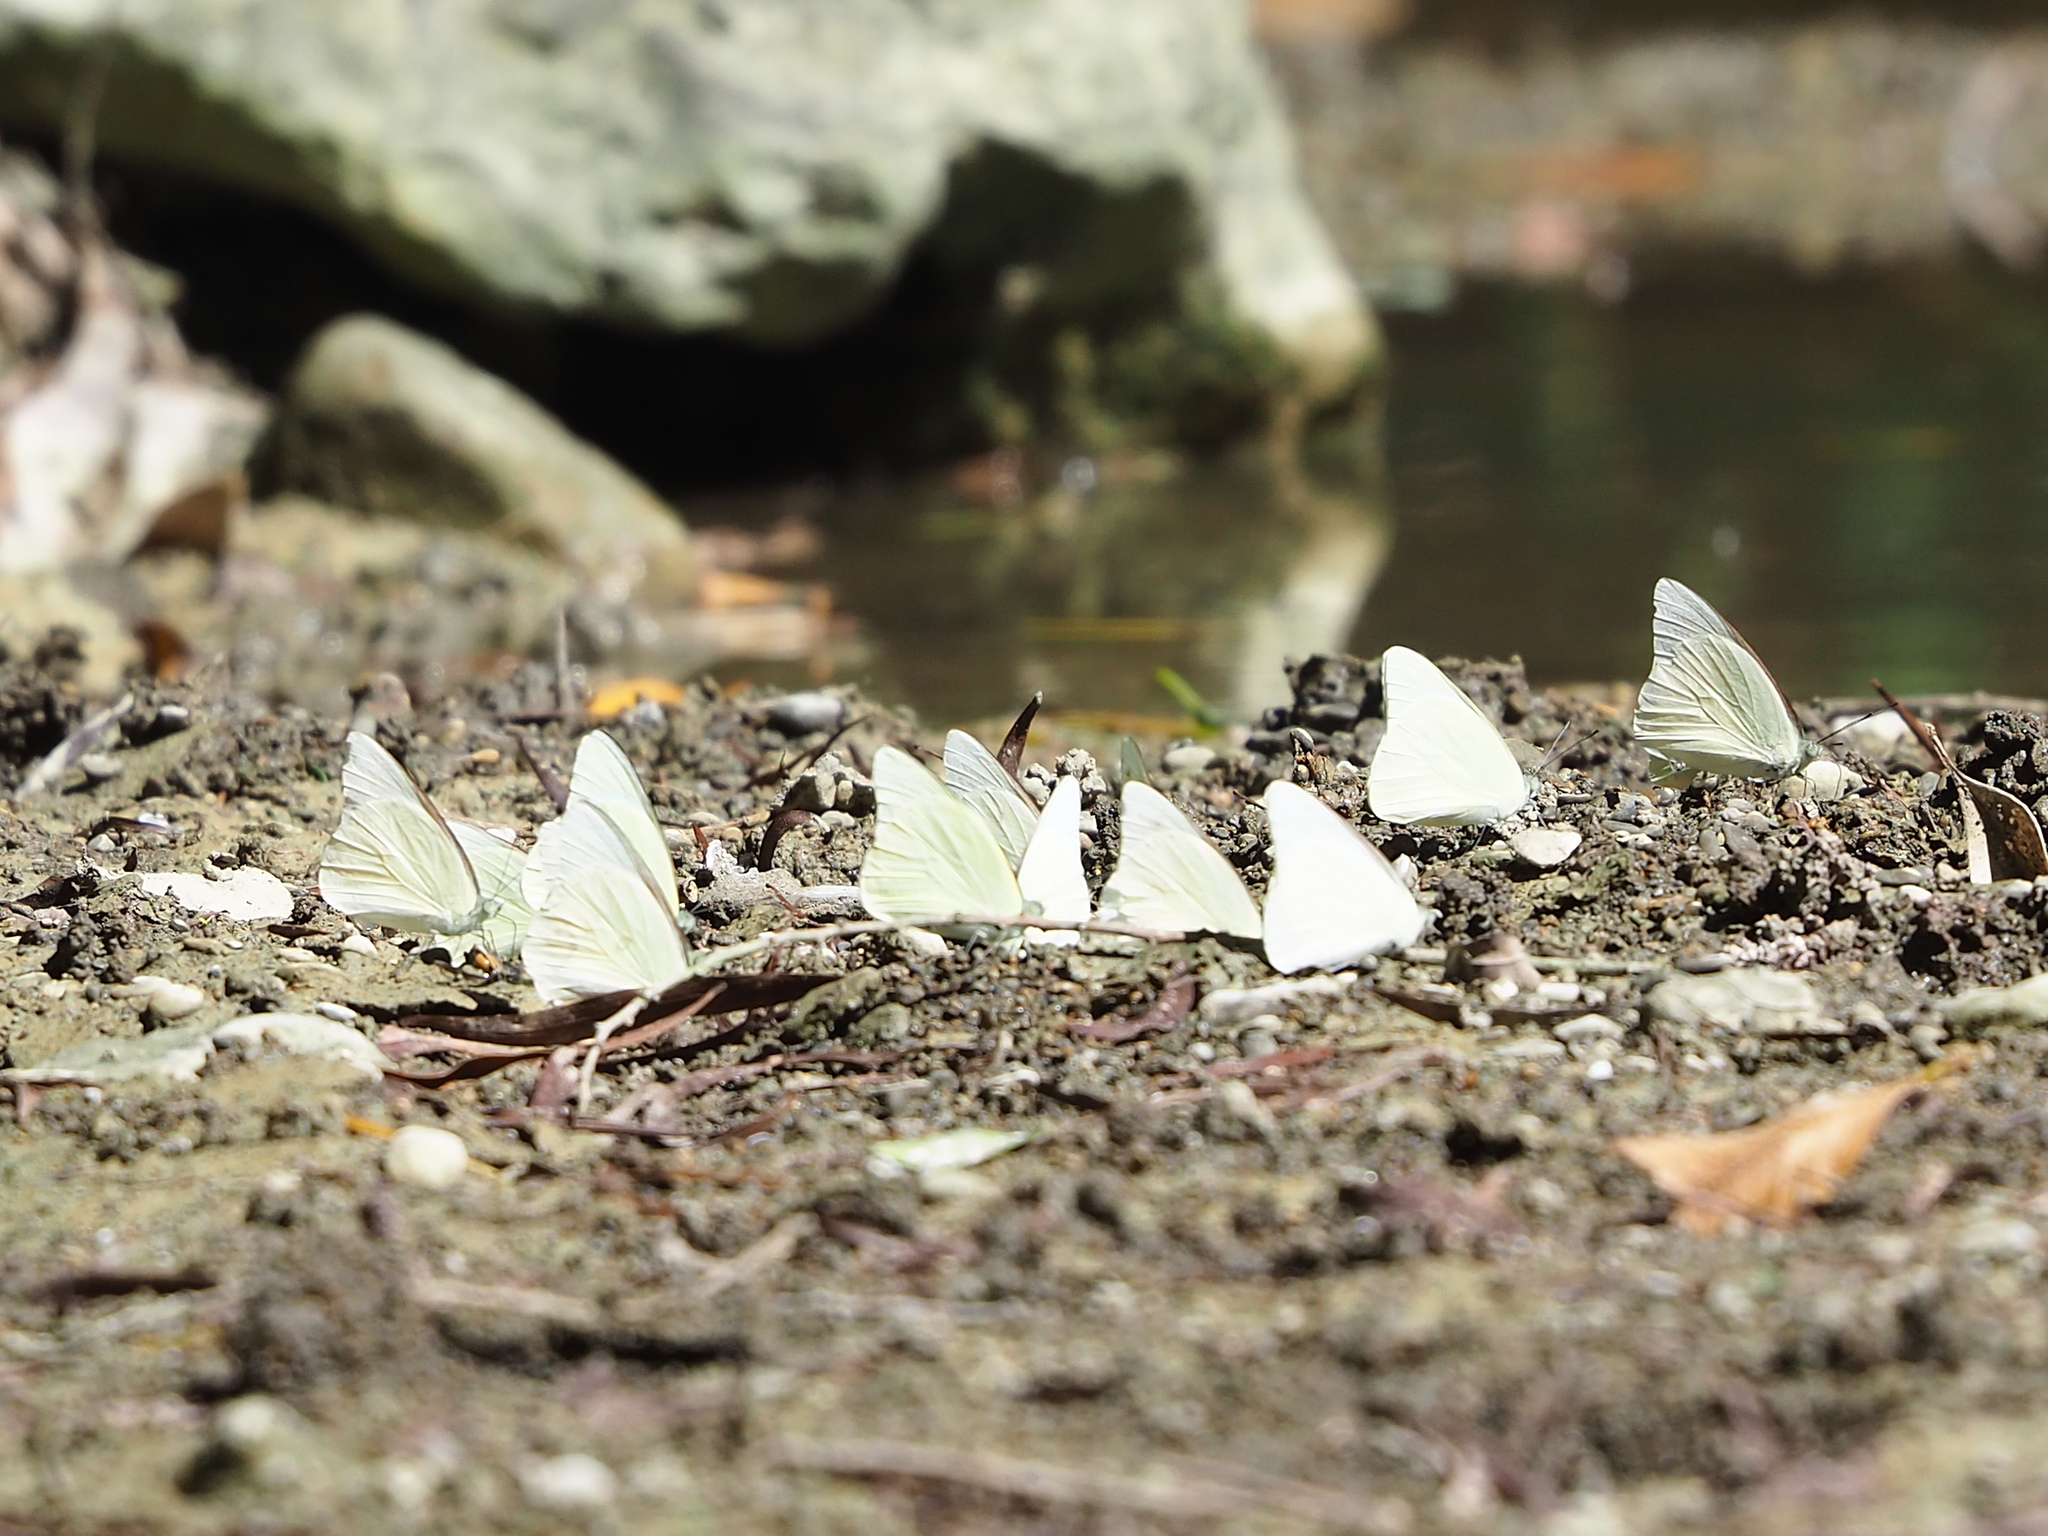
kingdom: Animalia
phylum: Arthropoda
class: Insecta
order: Lepidoptera
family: Pieridae
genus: Appias
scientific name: Appias albina
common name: Common albatross
